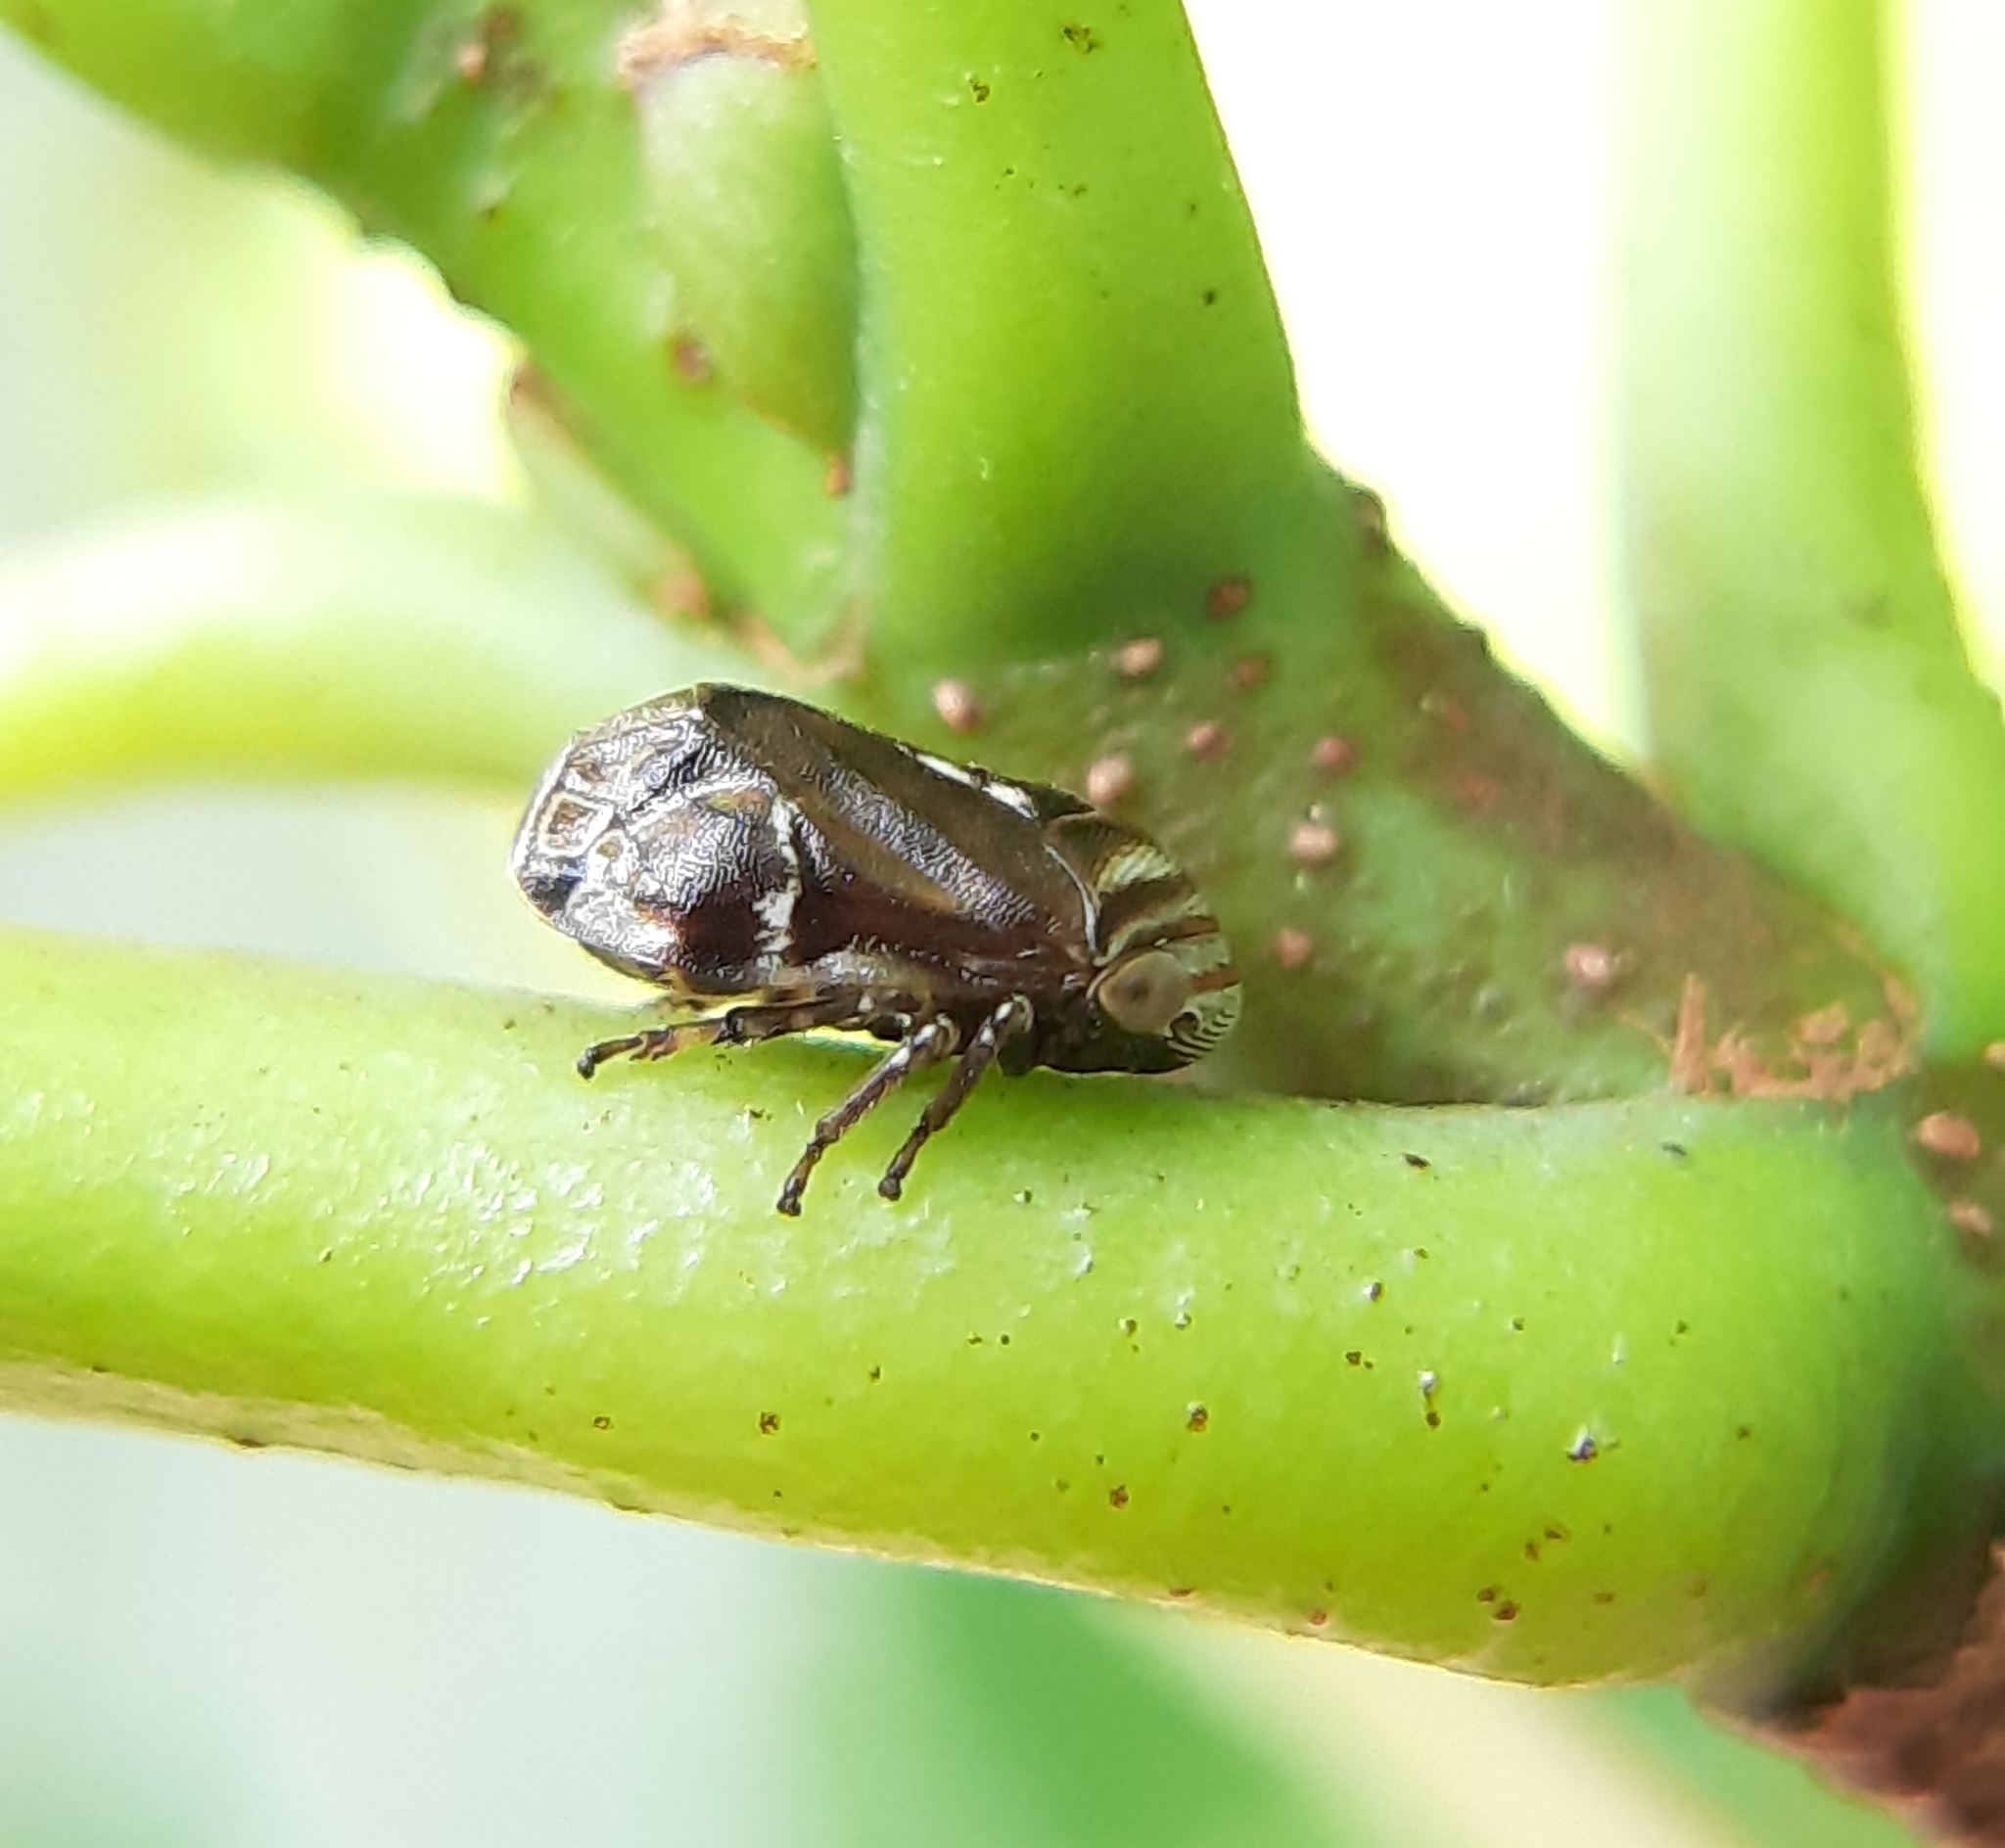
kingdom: Animalia
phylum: Arthropoda
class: Insecta
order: Hemiptera
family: Clastopteridae
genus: Clastoptera
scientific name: Clastoptera obtusa
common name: Alder spittlebug
